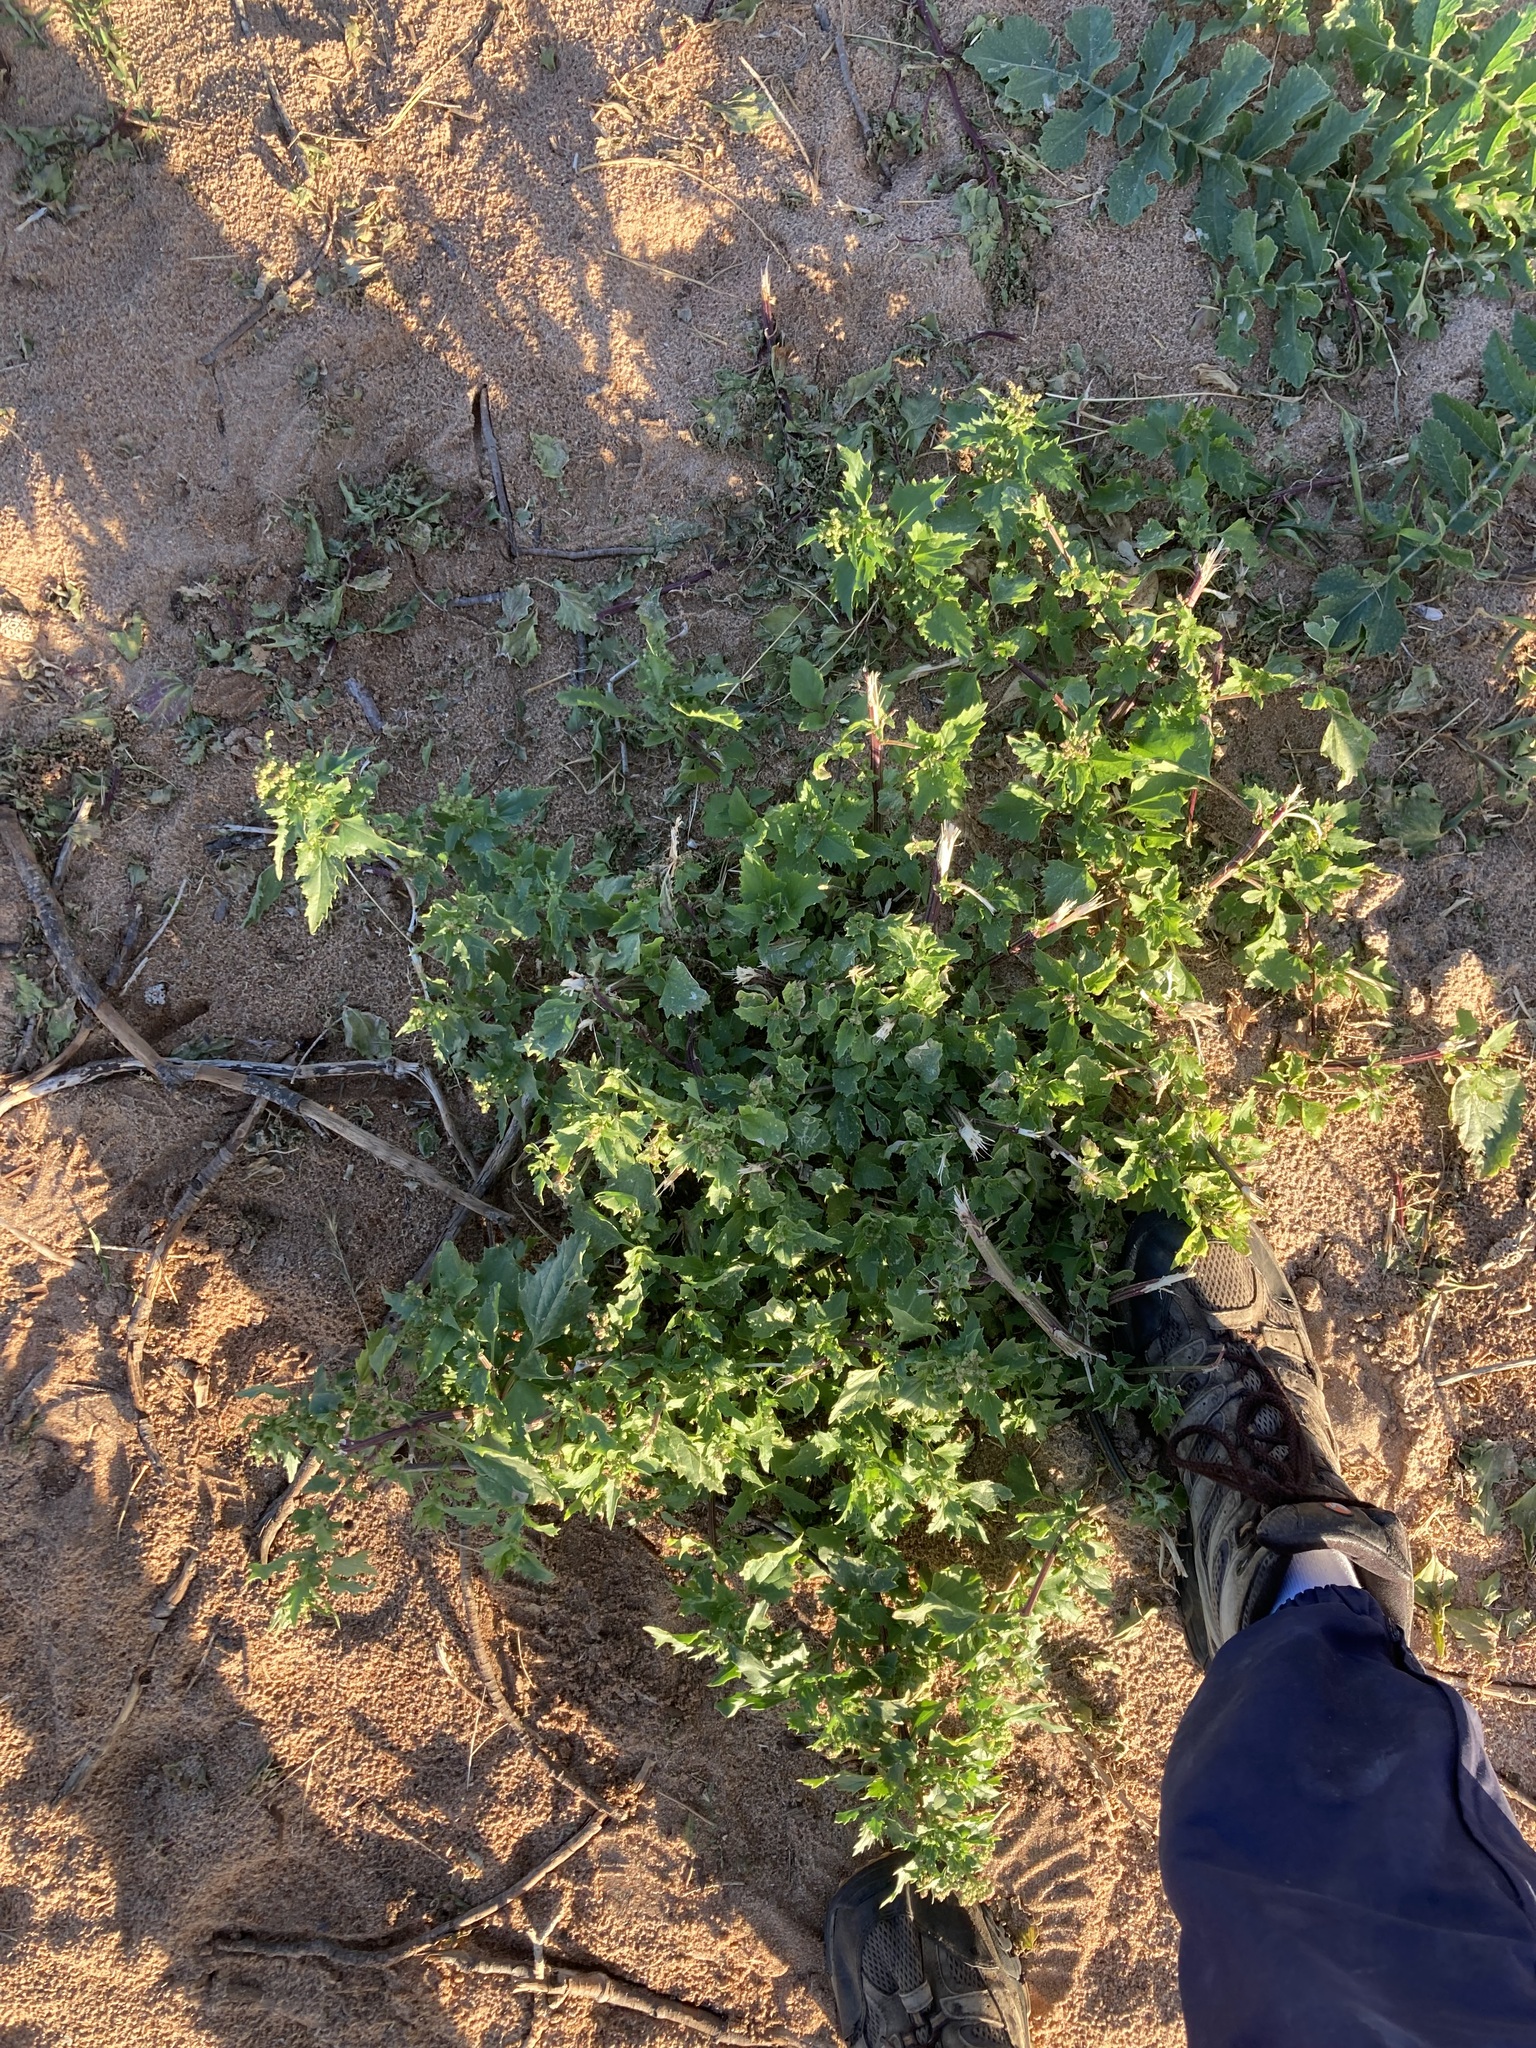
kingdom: Plantae
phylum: Tracheophyta
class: Magnoliopsida
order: Caryophyllales
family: Amaranthaceae
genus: Chenopodiastrum
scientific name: Chenopodiastrum murale
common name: Sowbane
